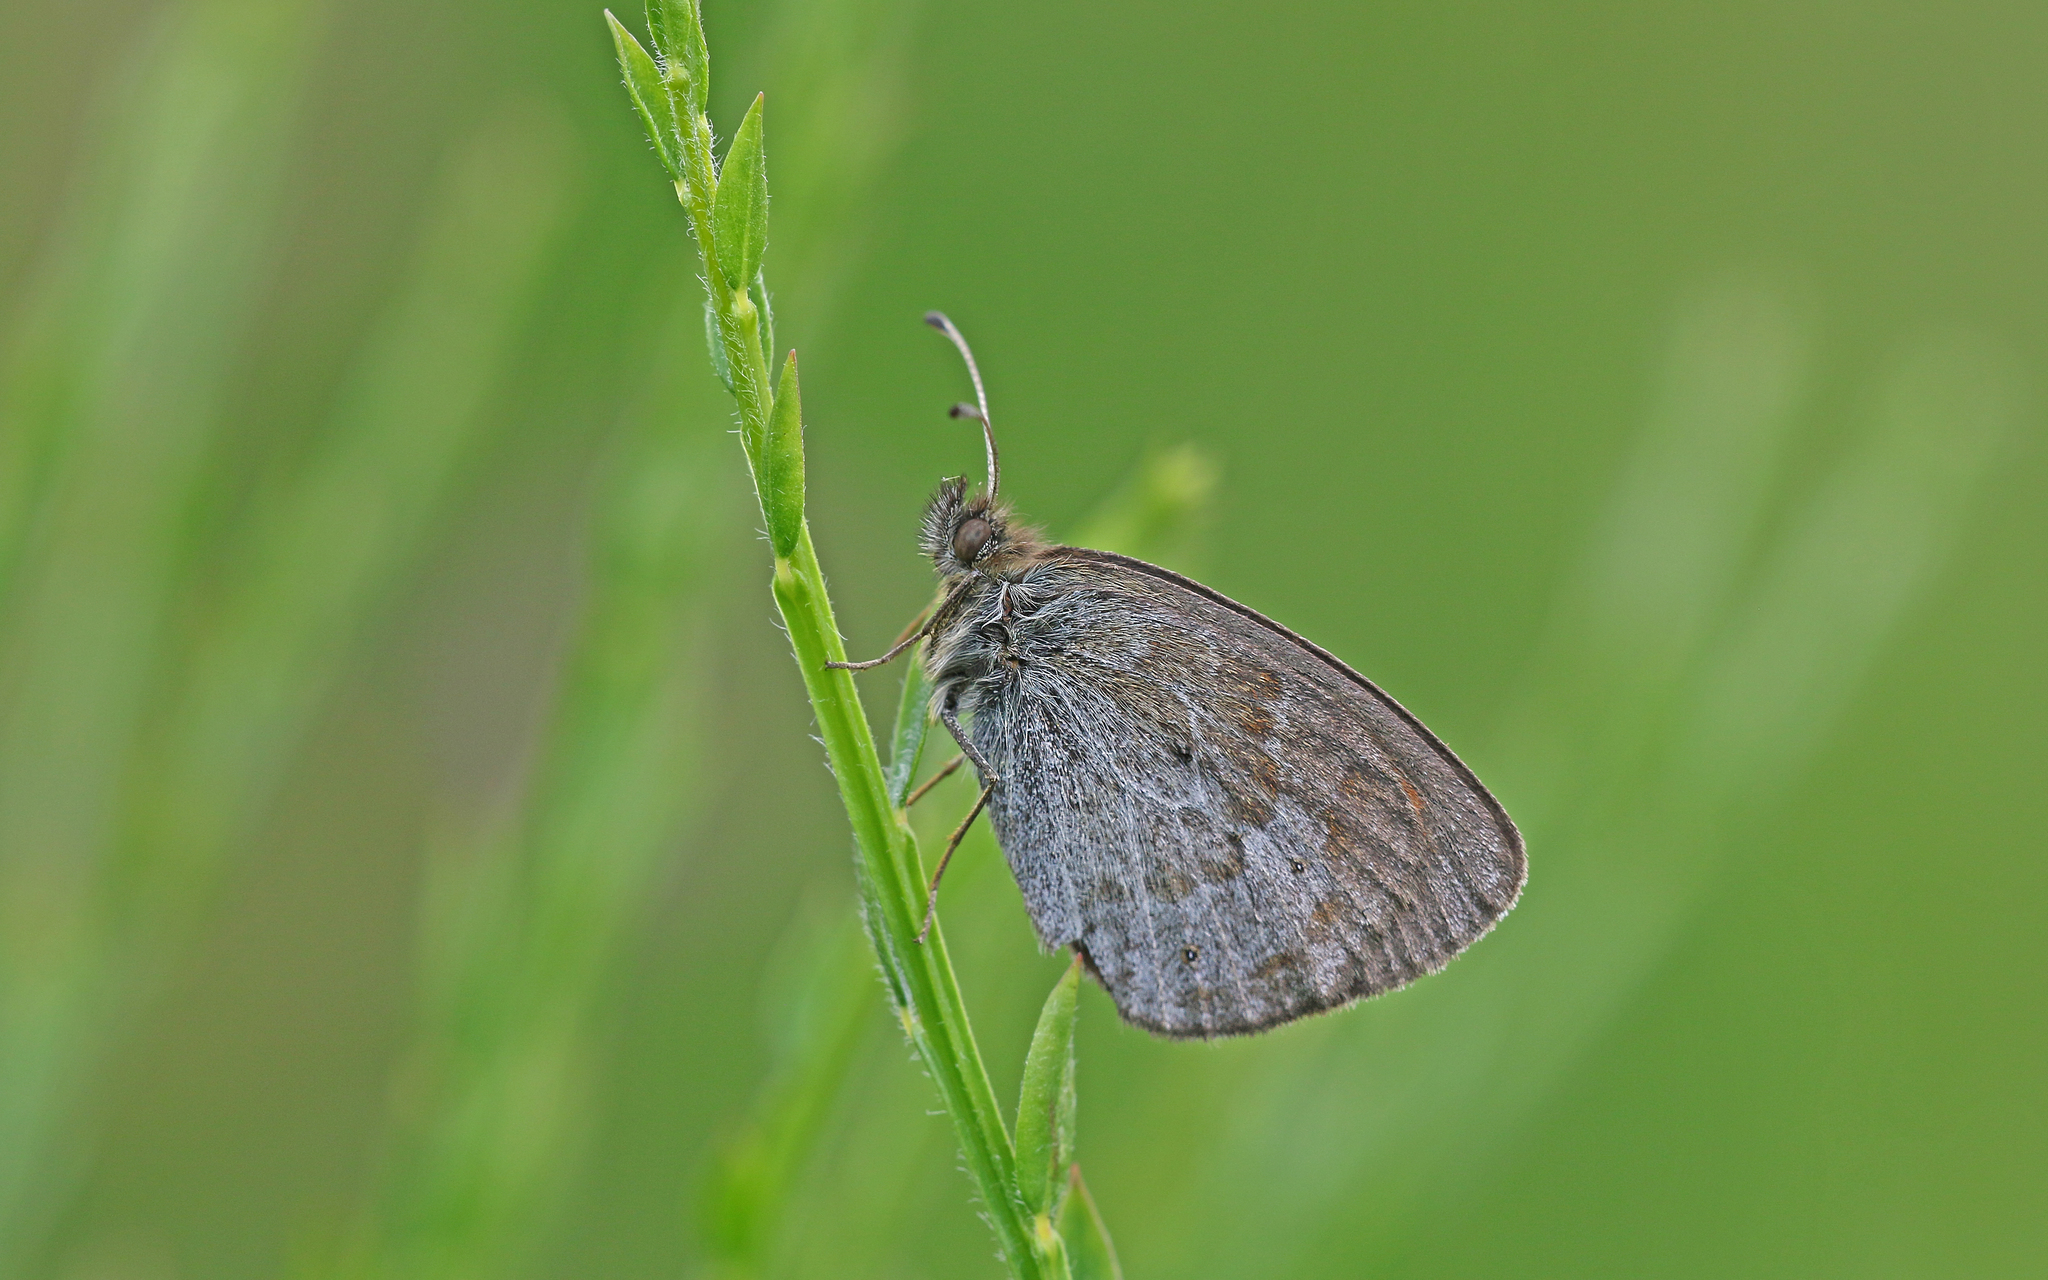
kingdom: Animalia
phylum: Arthropoda
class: Insecta
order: Lepidoptera
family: Nymphalidae
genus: Erebia
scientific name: Erebia tyndarus
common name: Swiss brassy ringlet
